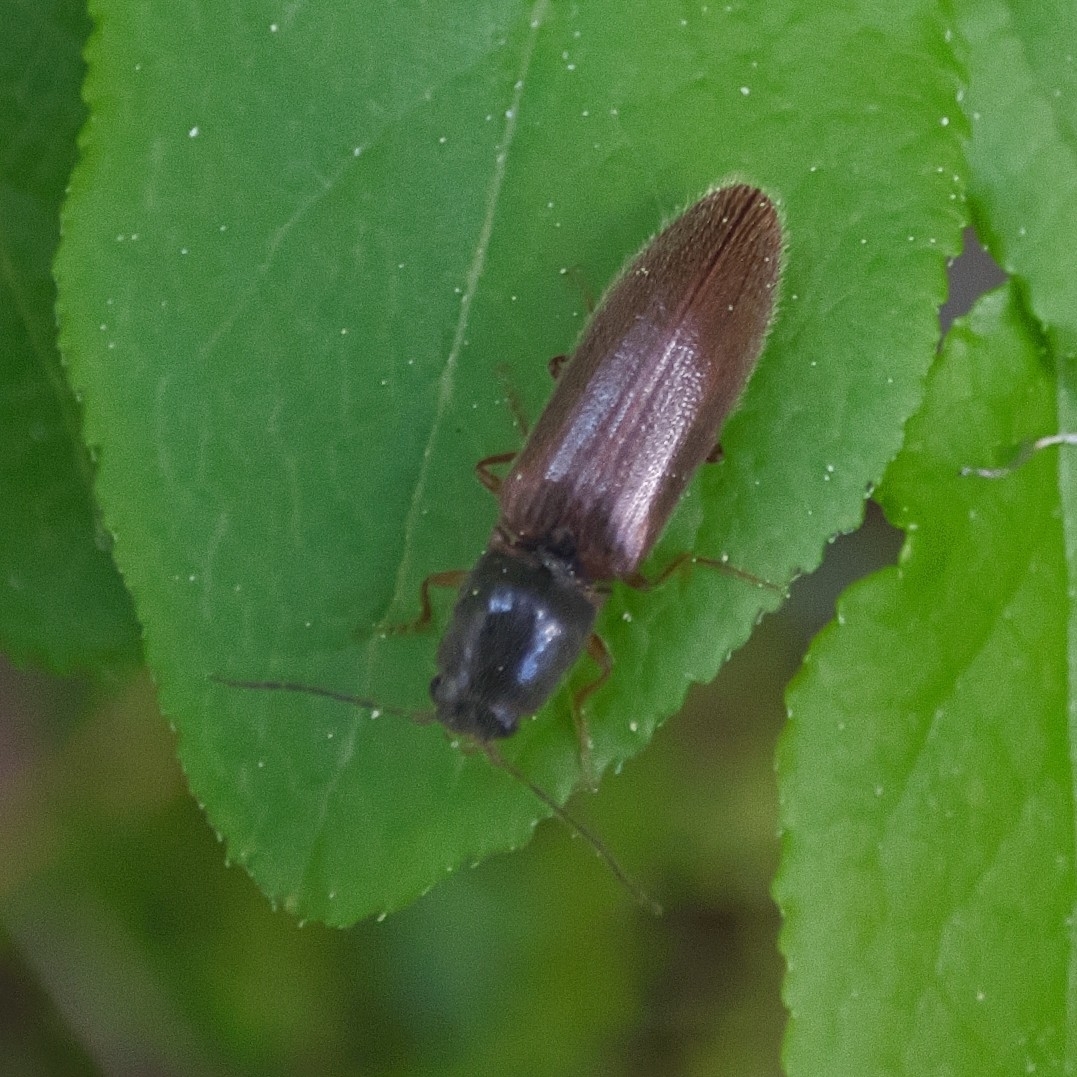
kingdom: Animalia
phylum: Arthropoda
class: Insecta
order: Coleoptera
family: Elateridae
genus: Athous
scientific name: Athous subfuscus
